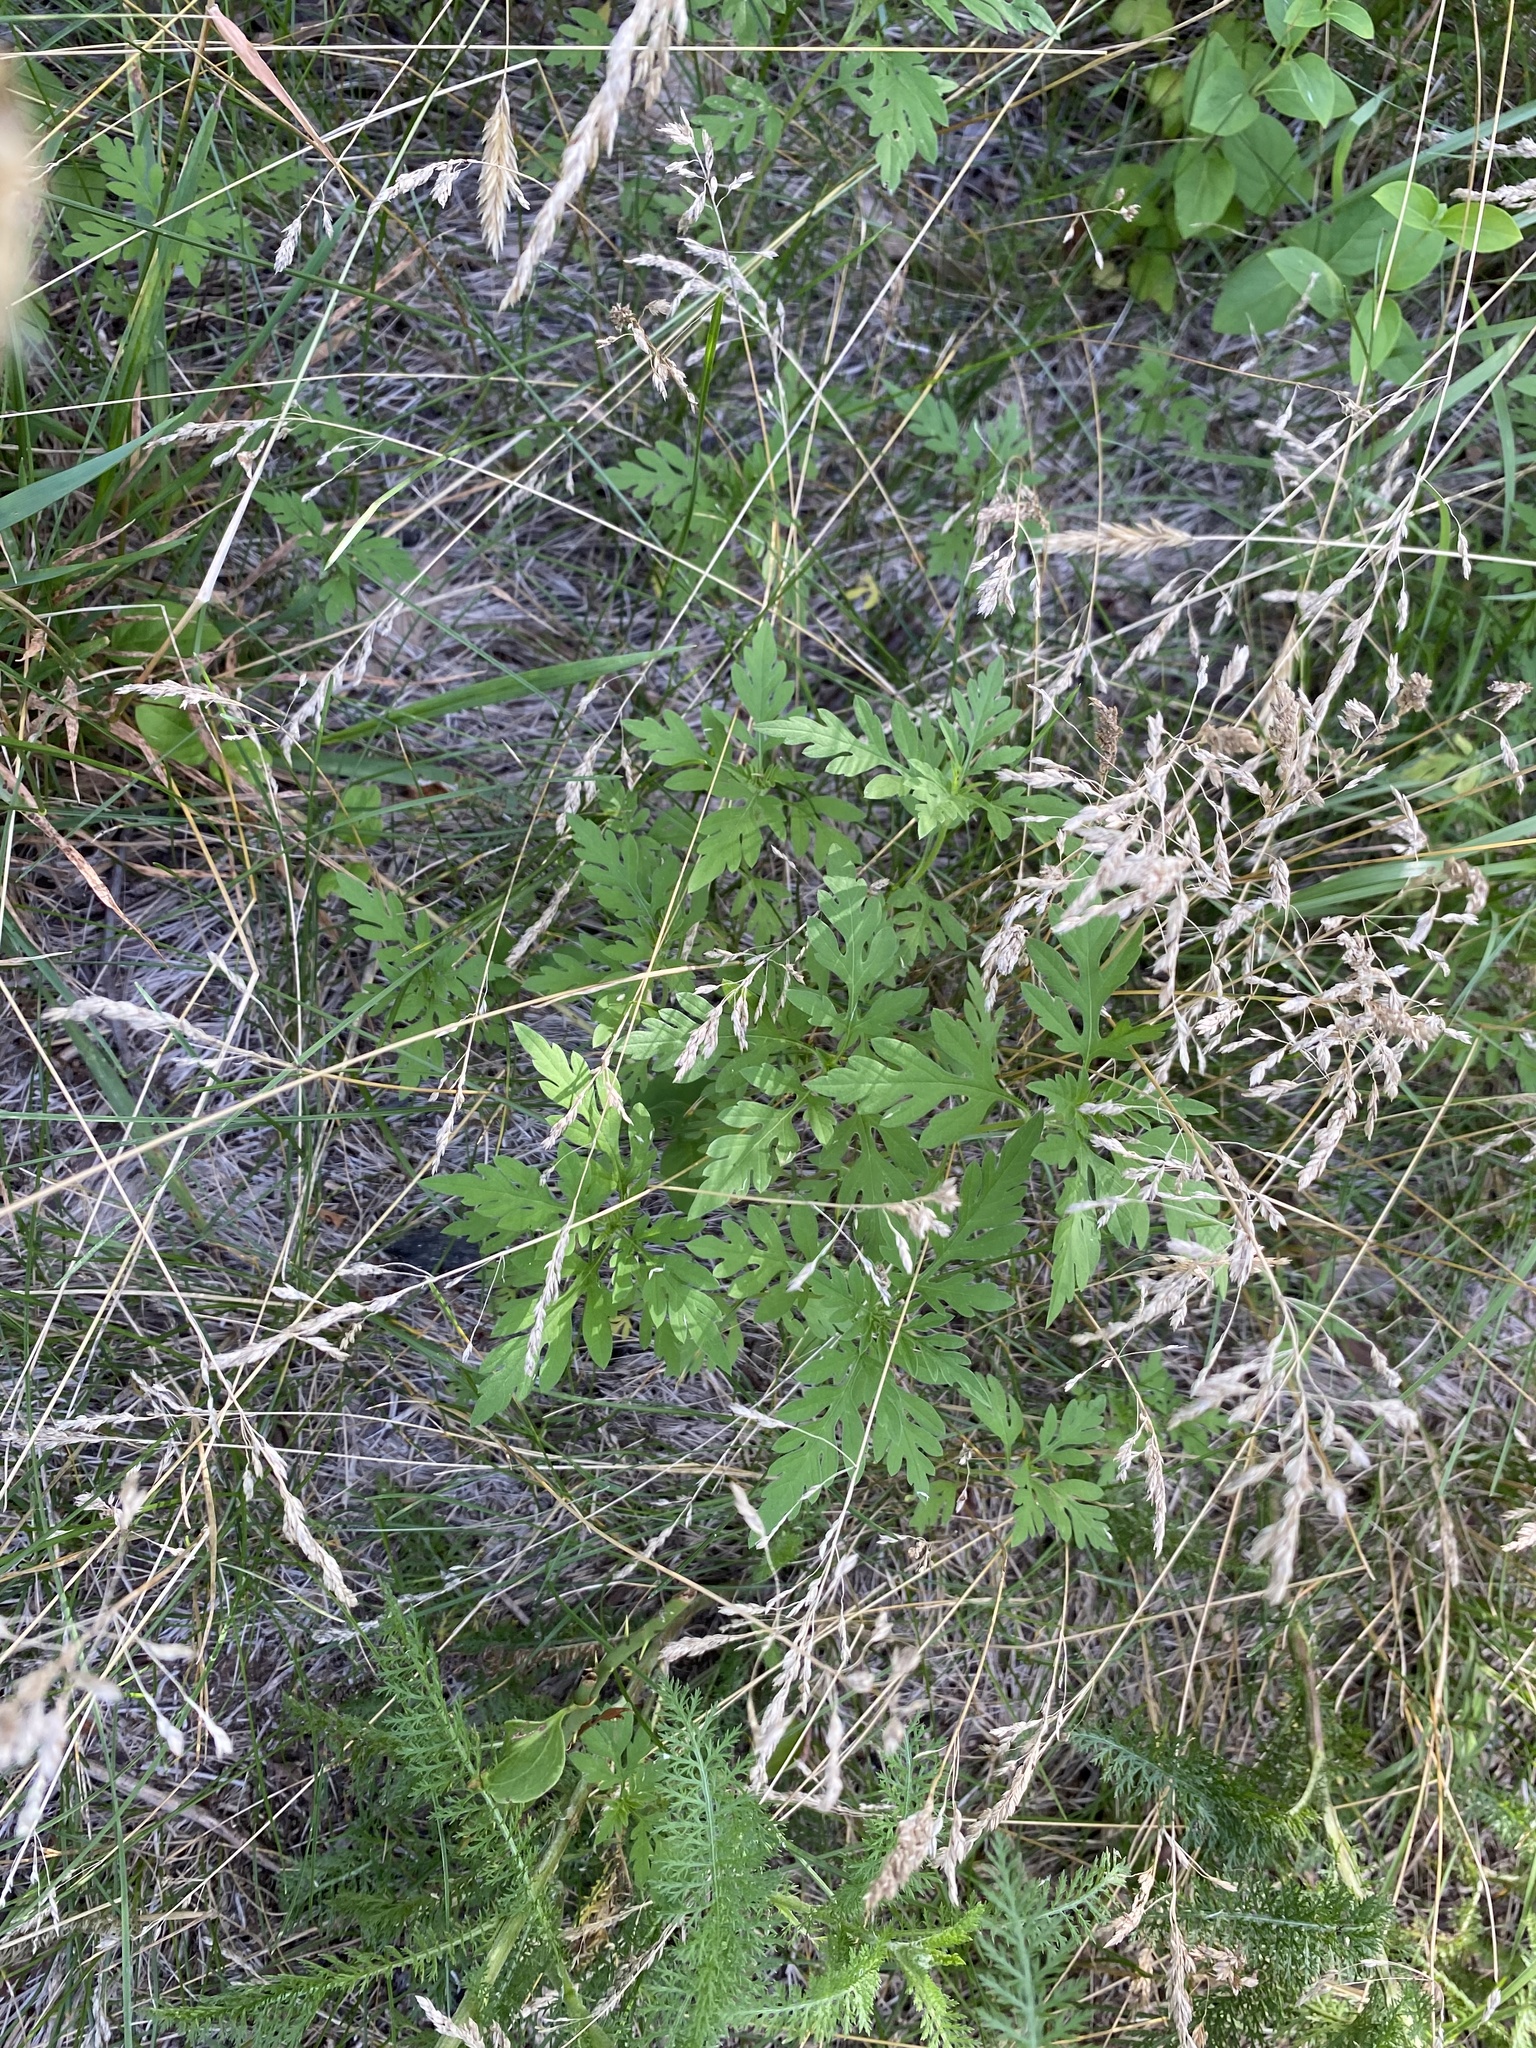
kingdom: Plantae
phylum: Tracheophyta
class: Magnoliopsida
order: Asterales
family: Asteraceae
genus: Ambrosia
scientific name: Ambrosia artemisiifolia
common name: Annual ragweed
